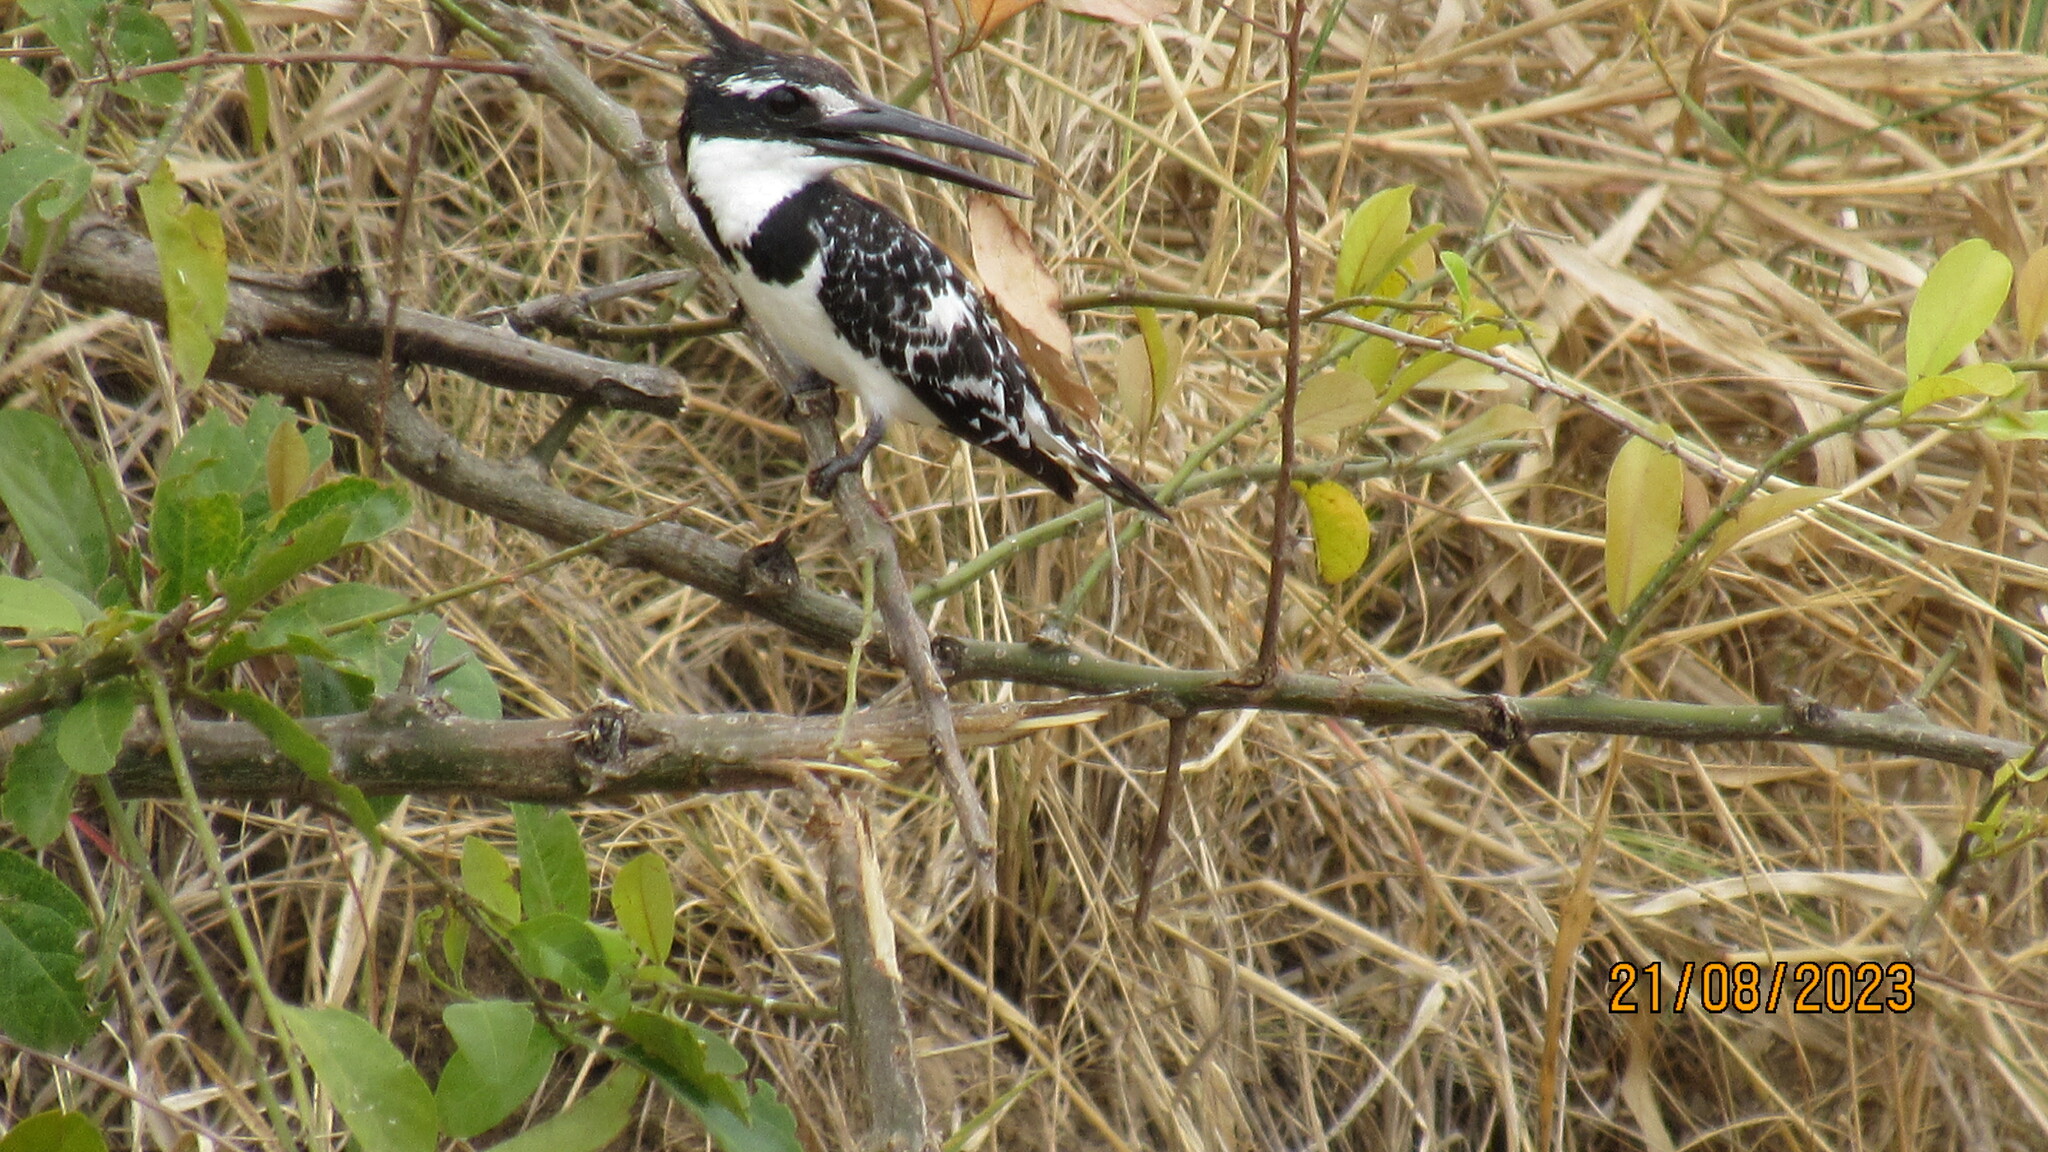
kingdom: Animalia
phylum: Chordata
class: Aves
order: Coraciiformes
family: Alcedinidae
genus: Ceryle
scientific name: Ceryle rudis
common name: Pied kingfisher
